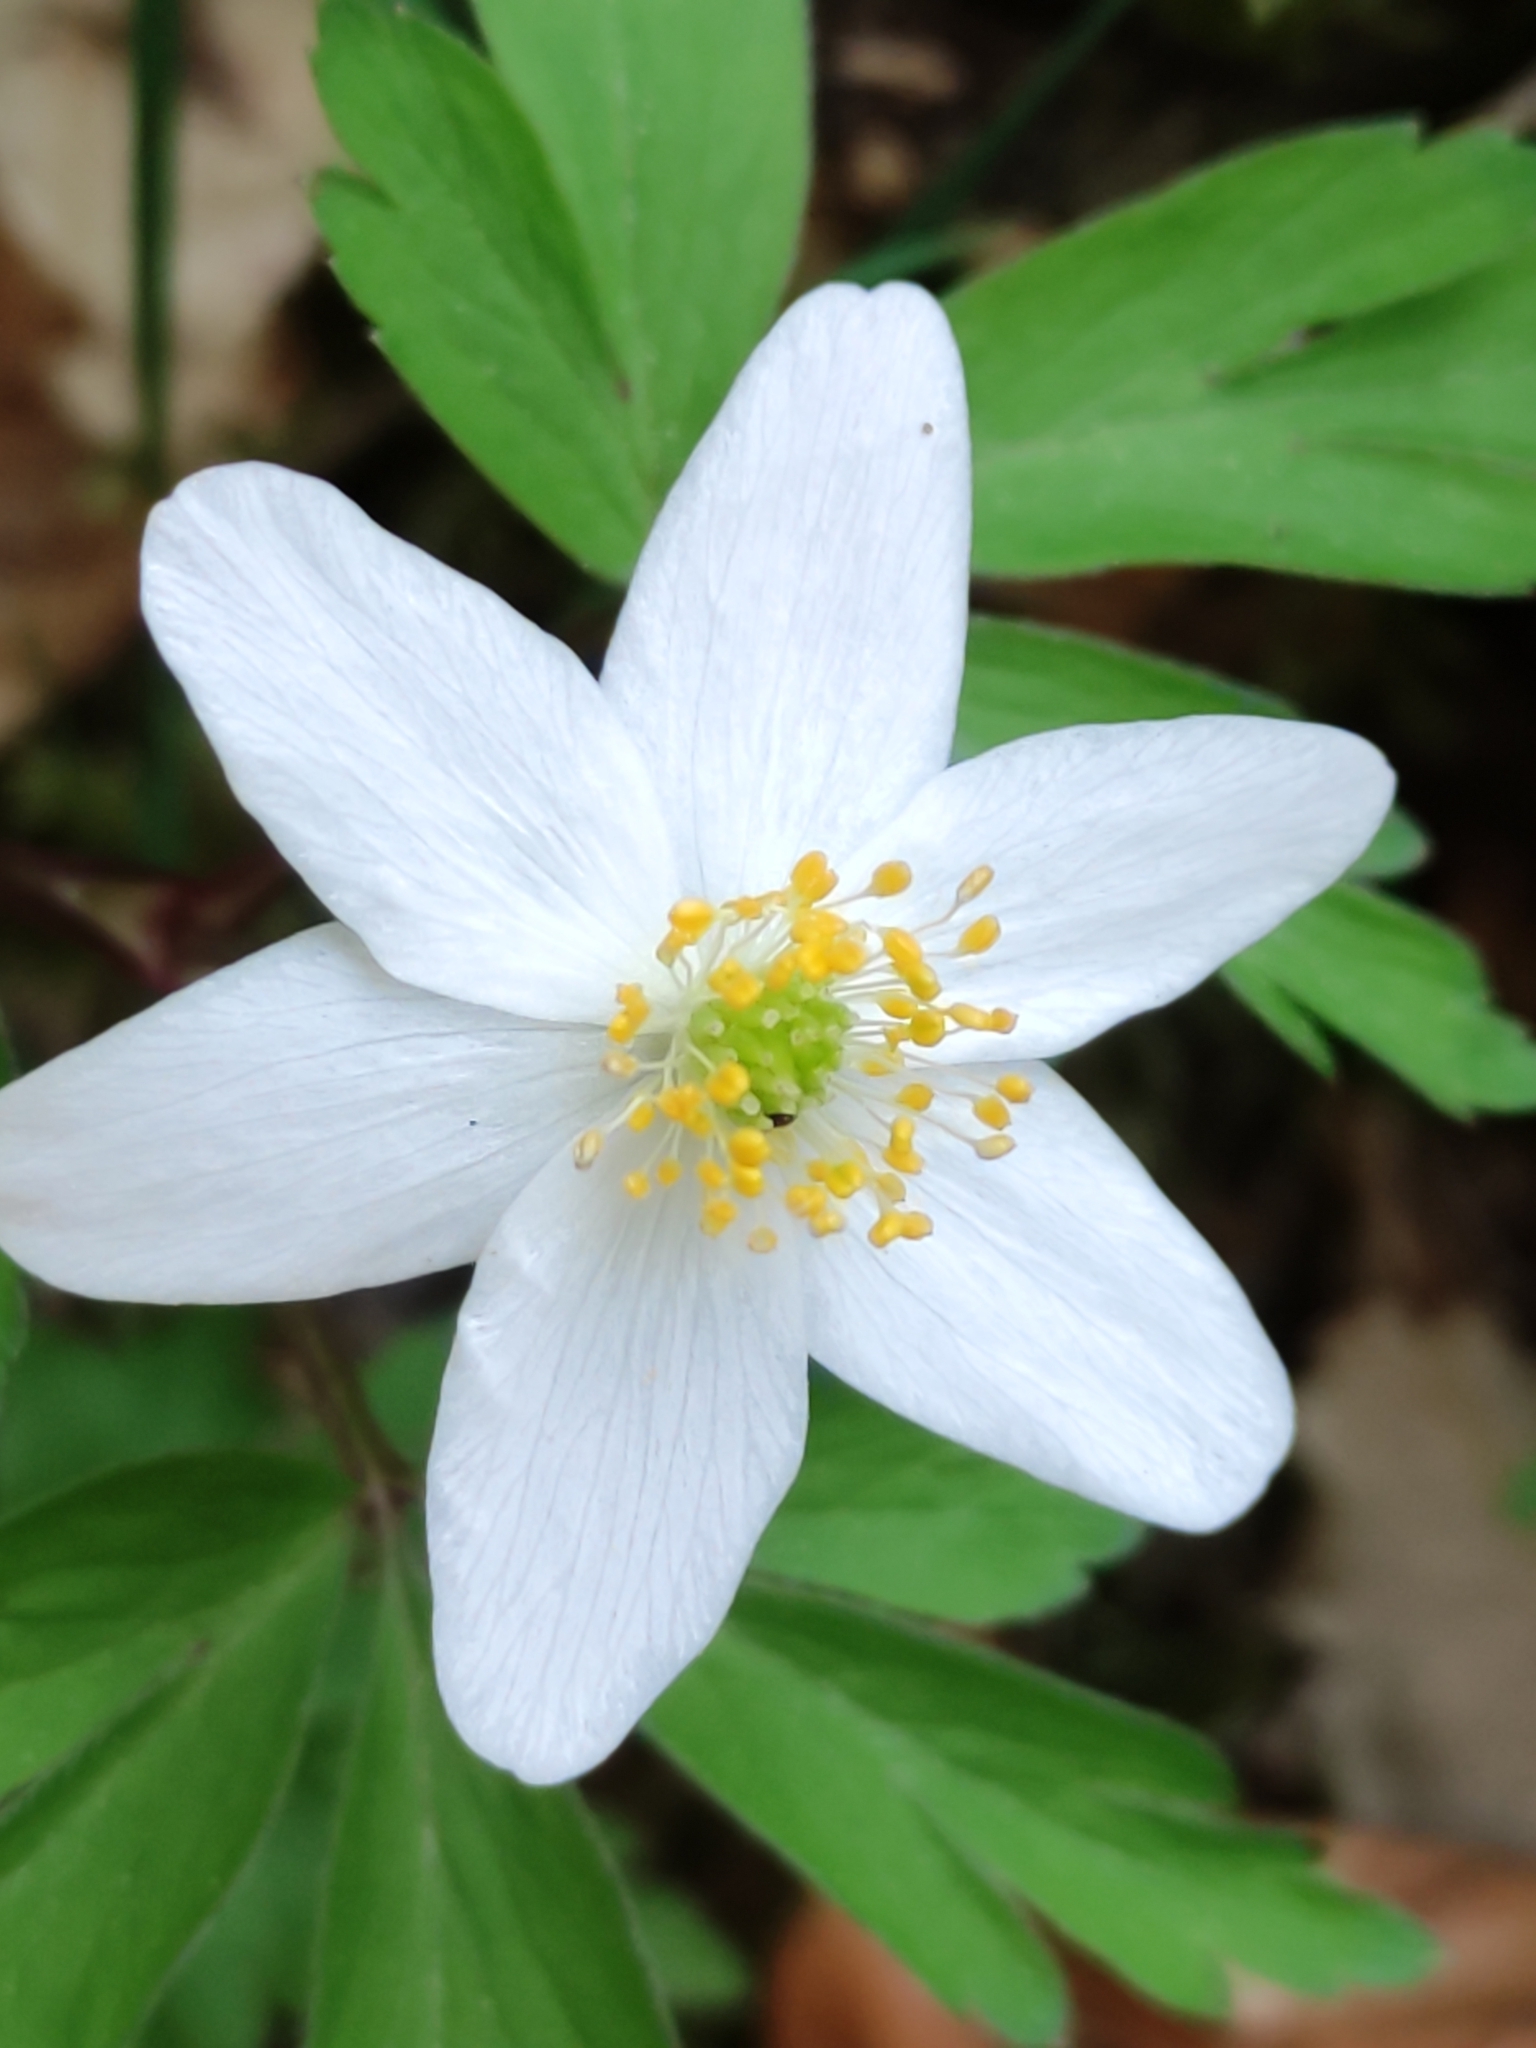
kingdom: Plantae
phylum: Tracheophyta
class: Magnoliopsida
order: Ranunculales
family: Ranunculaceae
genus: Anemone
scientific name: Anemone nemorosa
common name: Wood anemone
